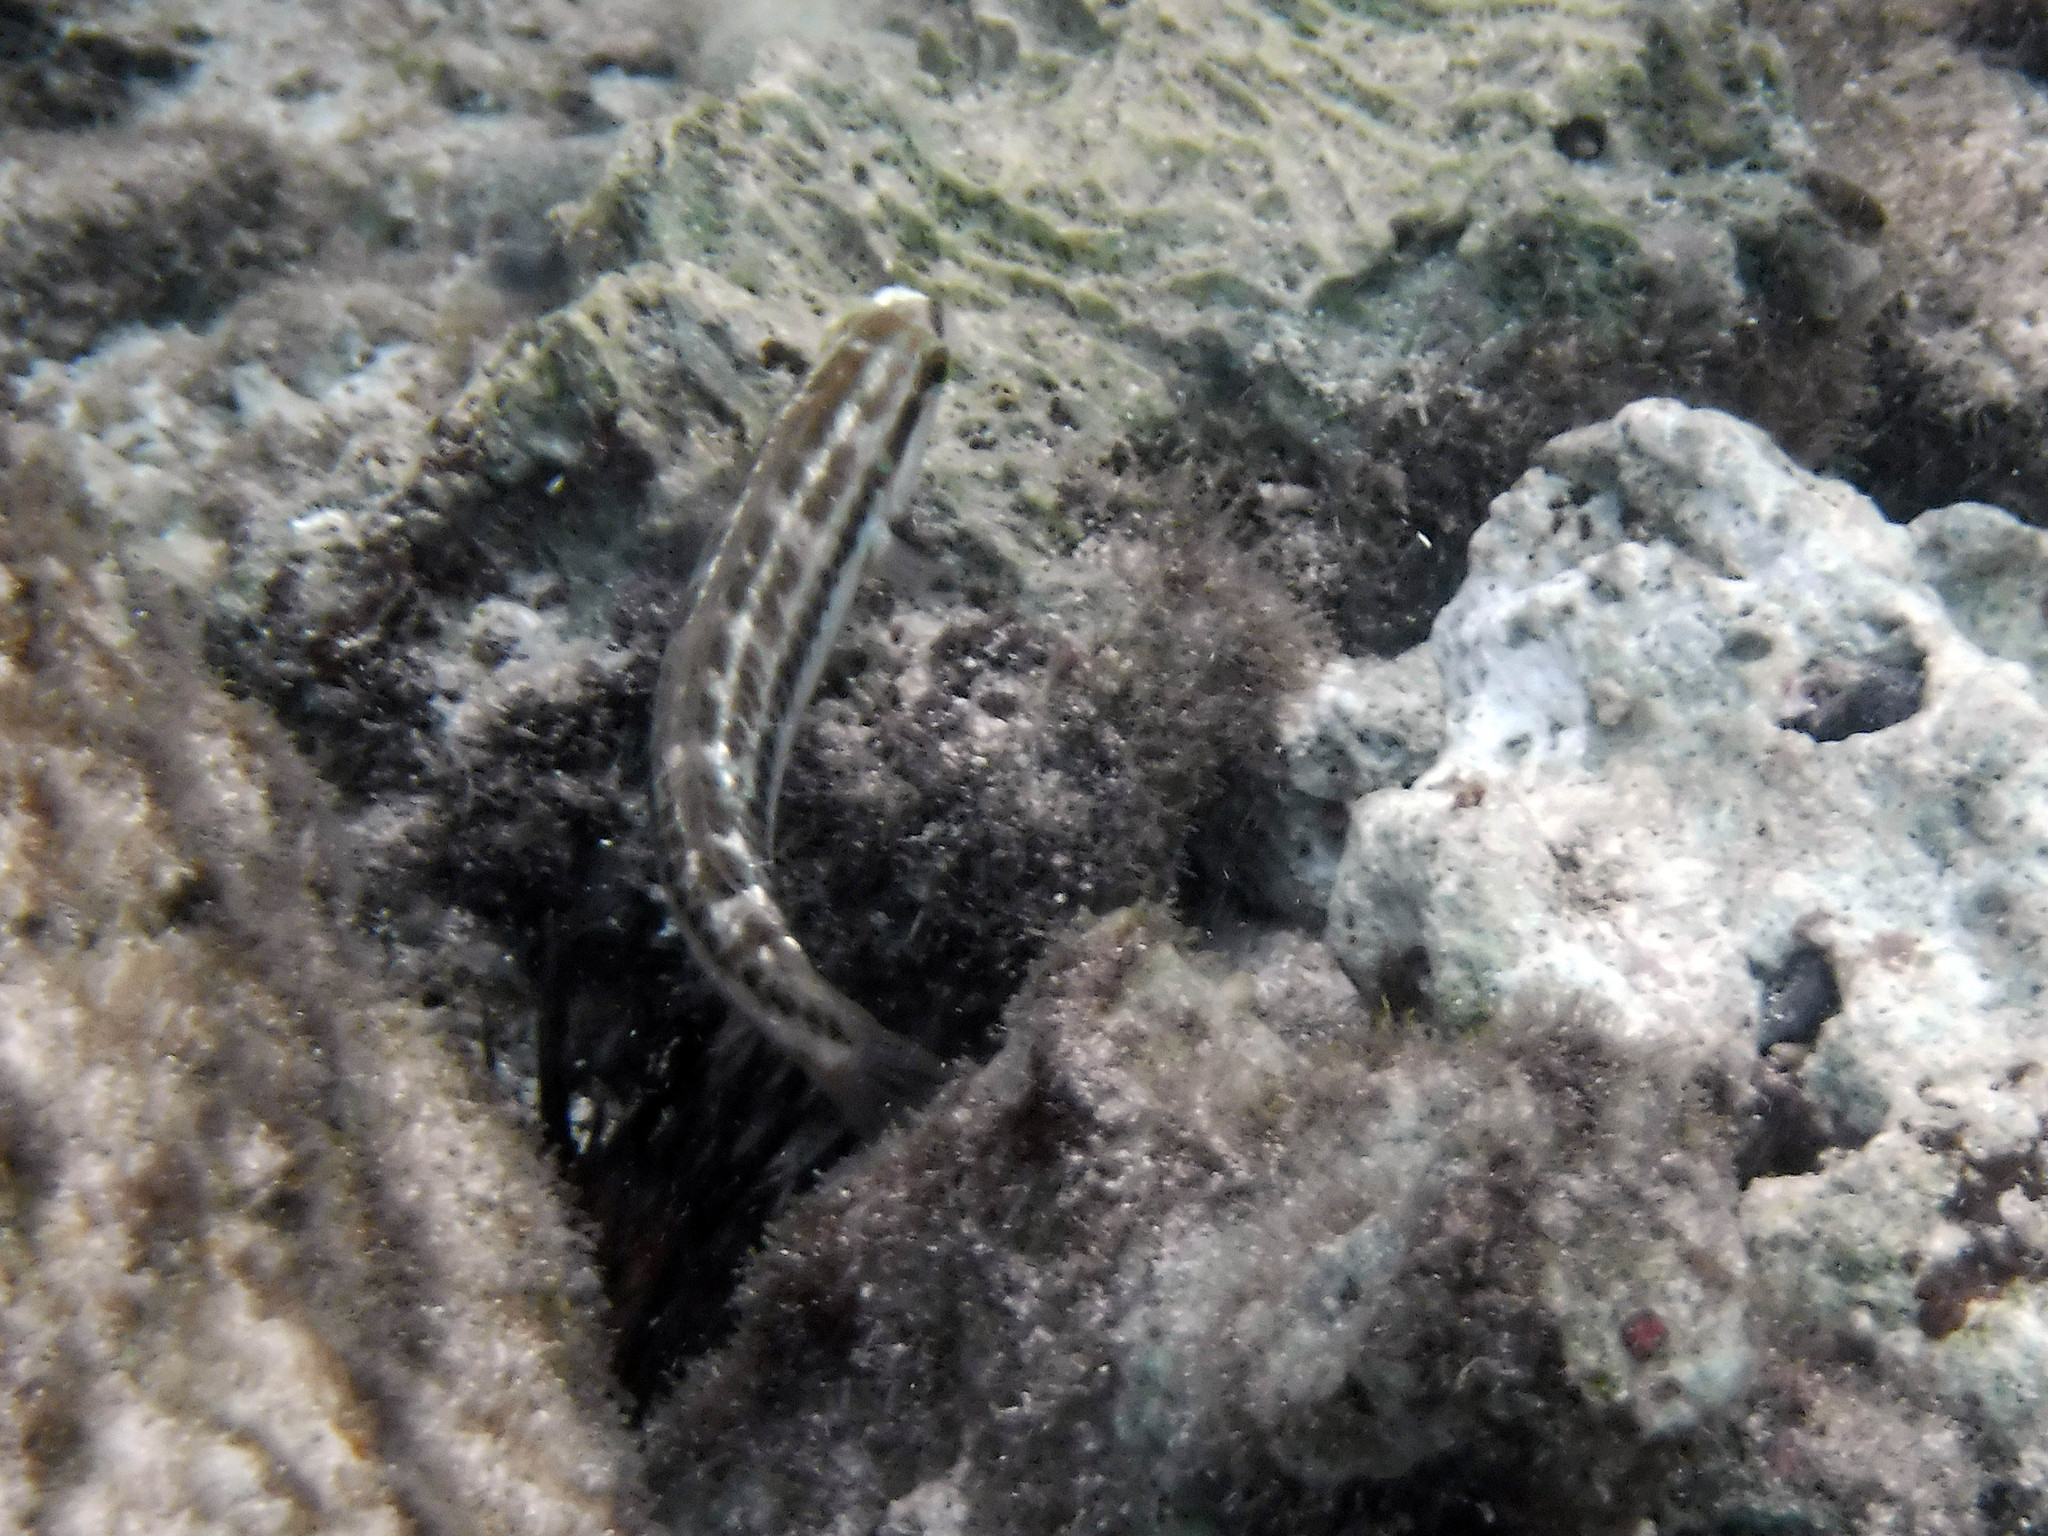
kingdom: Animalia
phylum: Chordata
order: Perciformes
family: Labridae
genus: Halichoeres
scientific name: Halichoeres bivittatus
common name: Slippery dick
